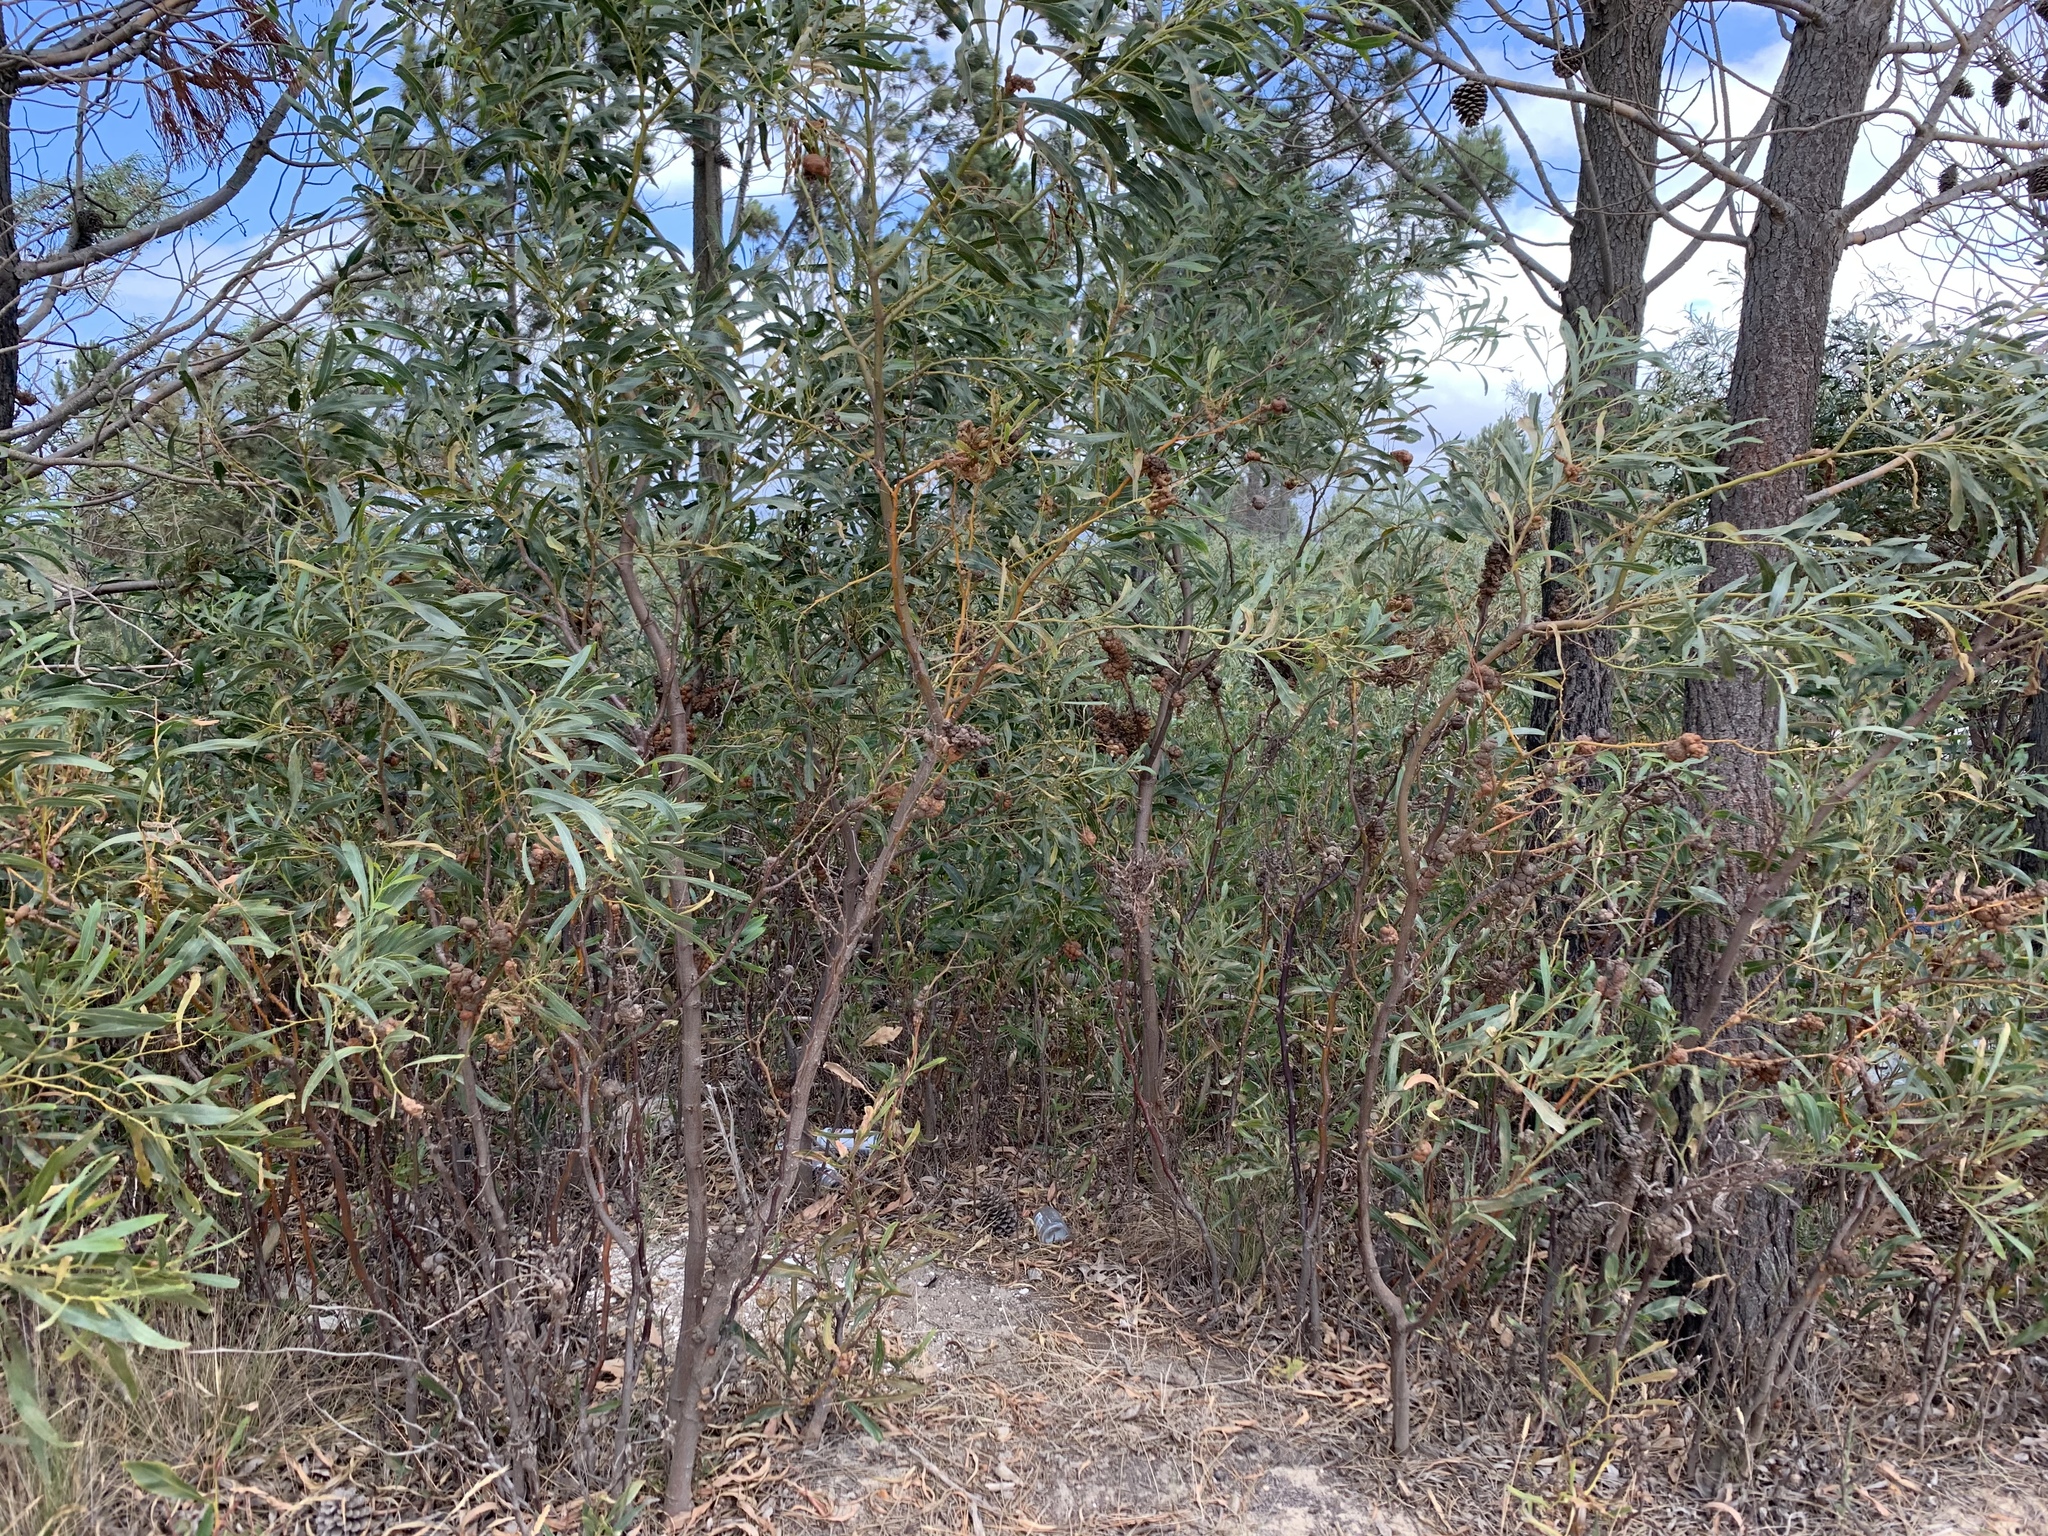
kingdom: Plantae
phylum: Tracheophyta
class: Magnoliopsida
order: Fabales
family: Fabaceae
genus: Acacia
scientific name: Acacia saligna
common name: Orange wattle
